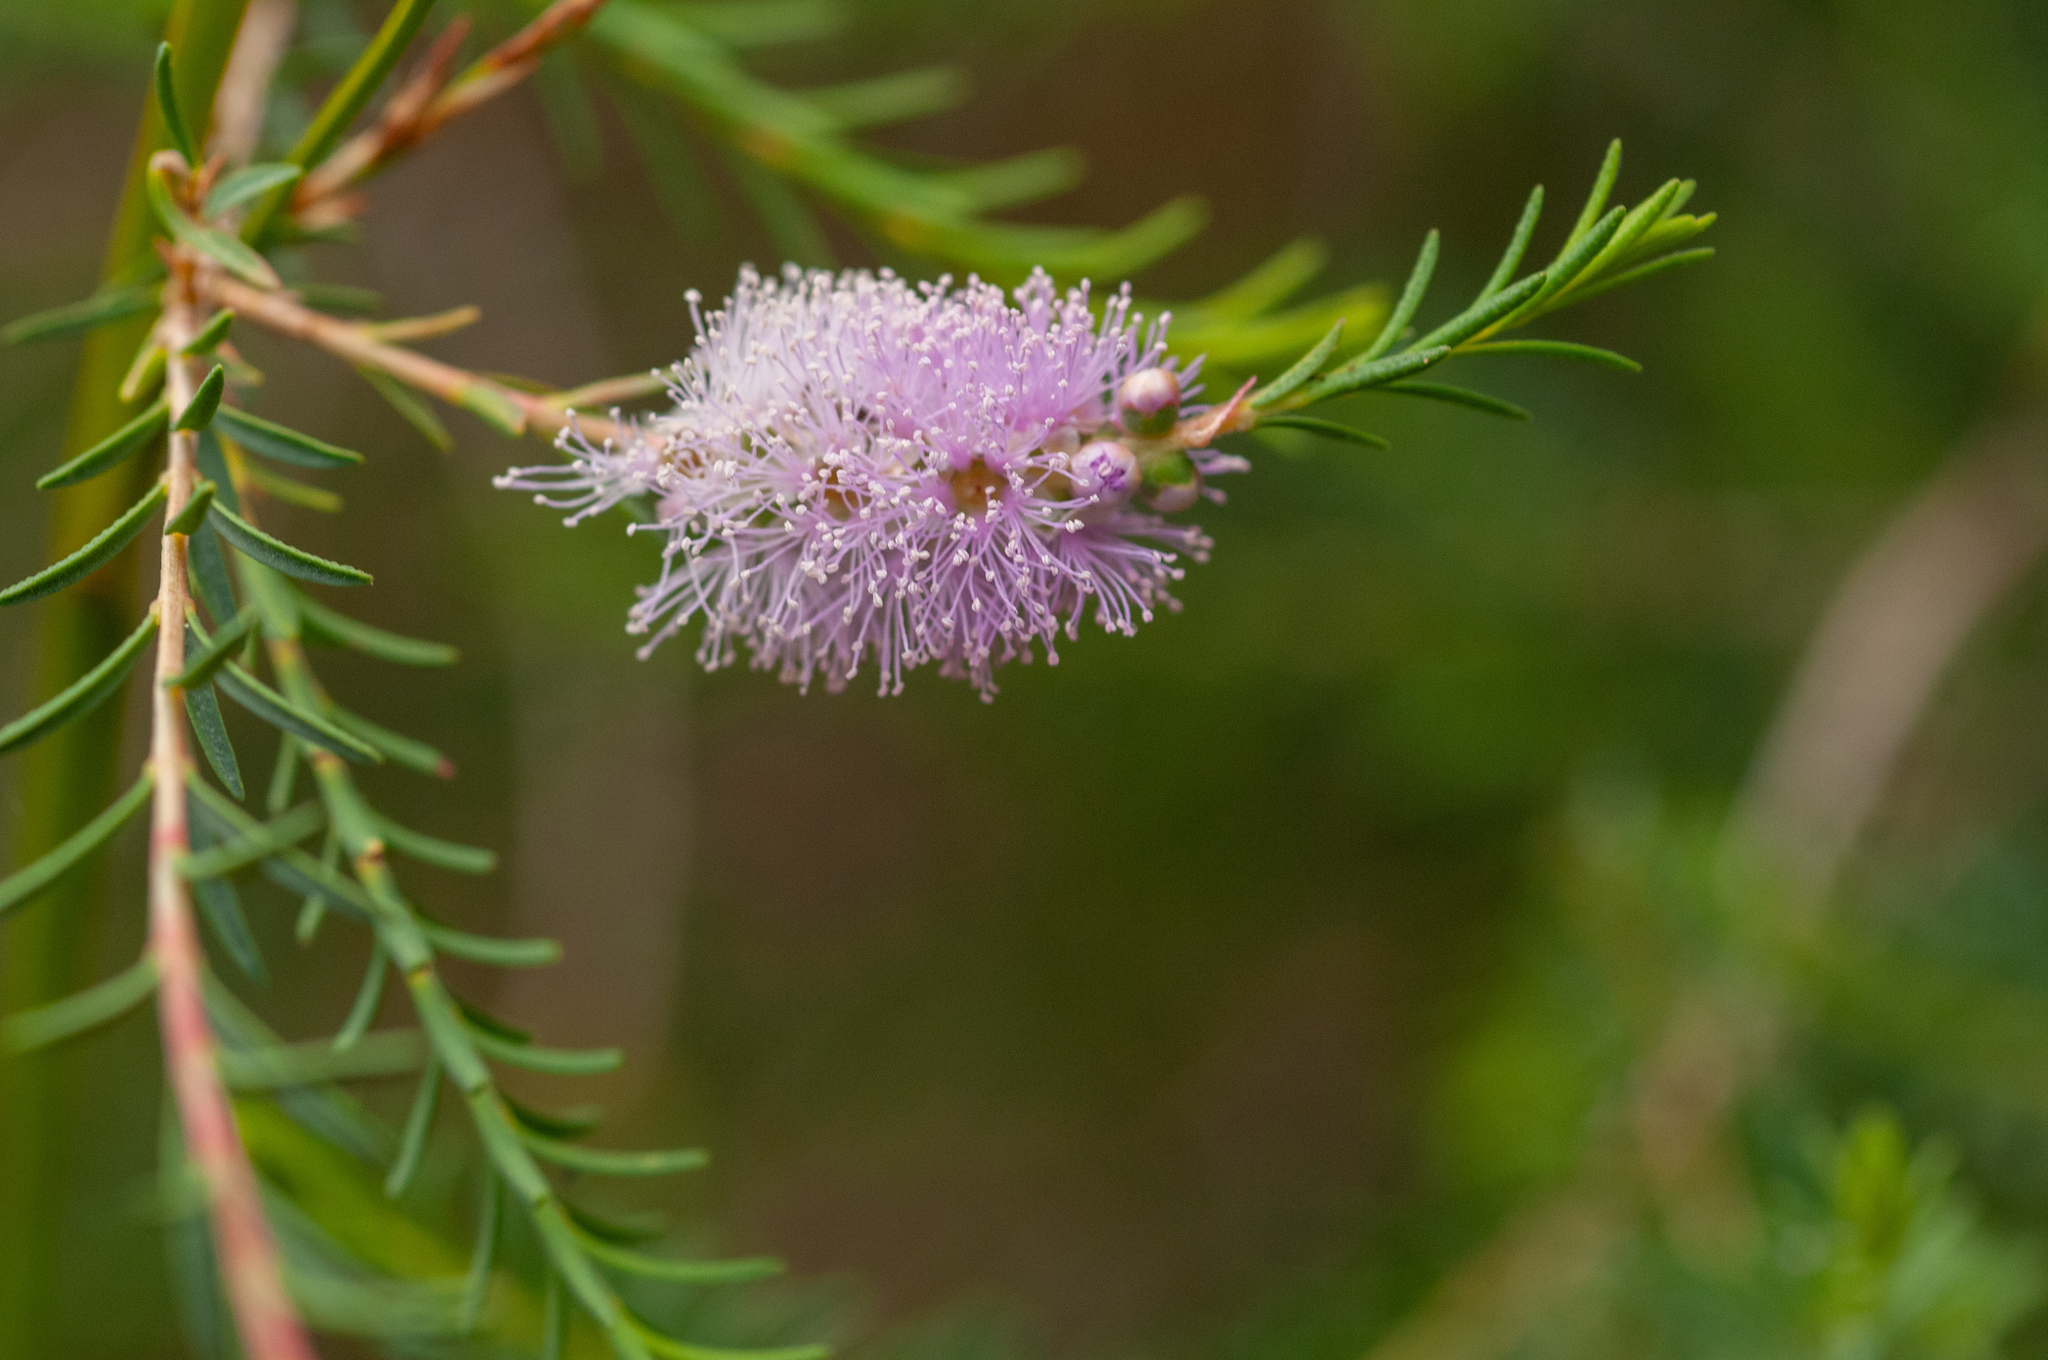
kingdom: Plantae
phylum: Tracheophyta
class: Magnoliopsida
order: Myrtales
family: Myrtaceae
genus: Melaleuca
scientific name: Melaleuca decussata
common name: Cross-leaf honey myrtle
